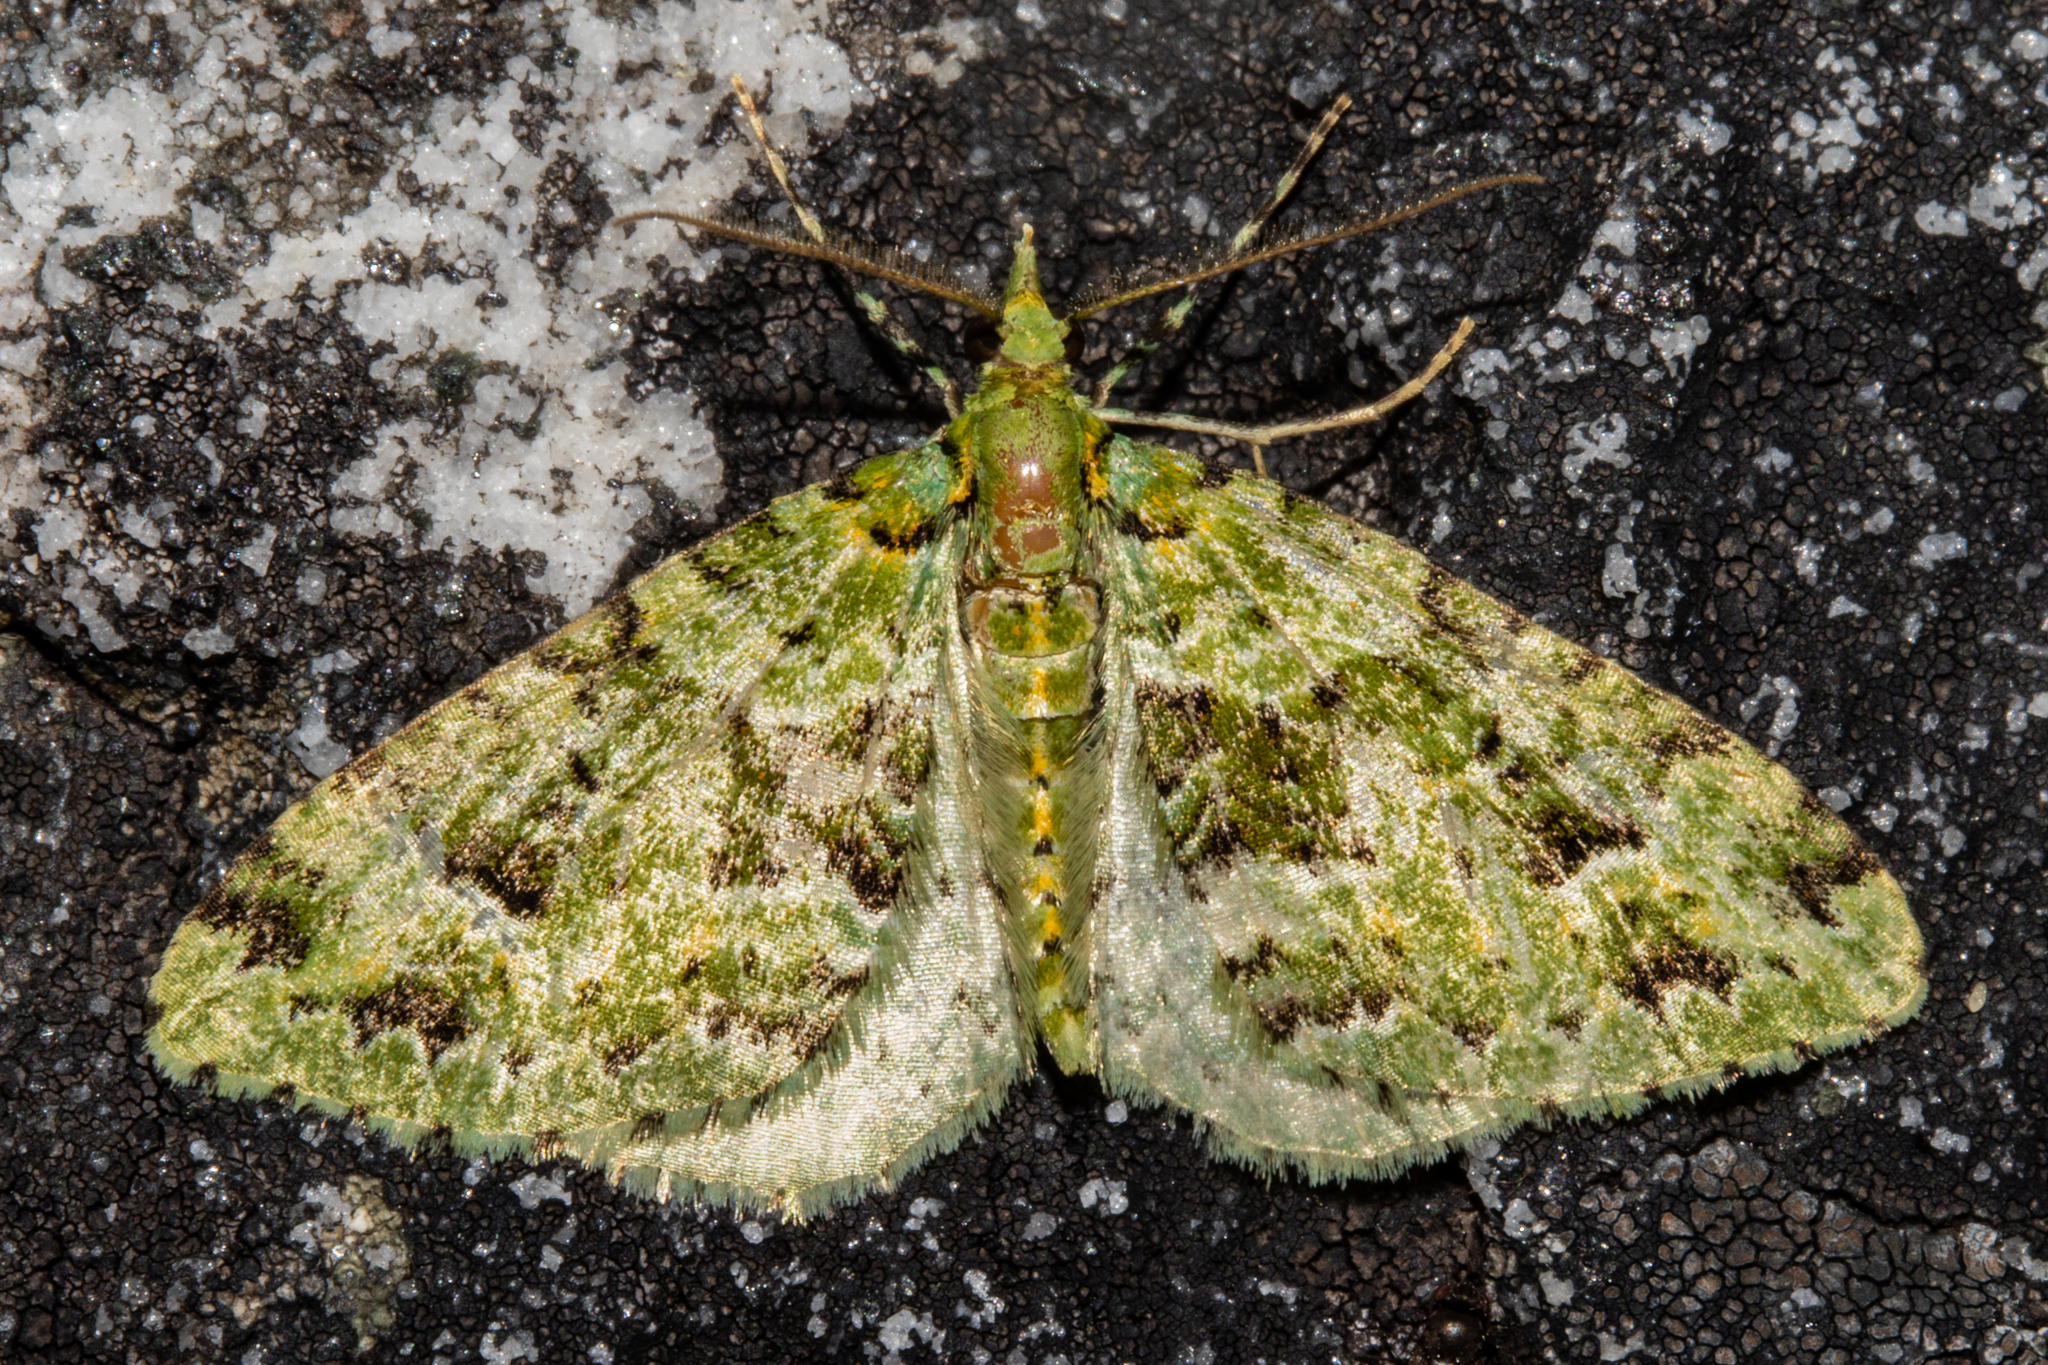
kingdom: Animalia
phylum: Arthropoda
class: Insecta
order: Lepidoptera
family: Geometridae
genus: Pasiphila
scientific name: Pasiphila melochlora
